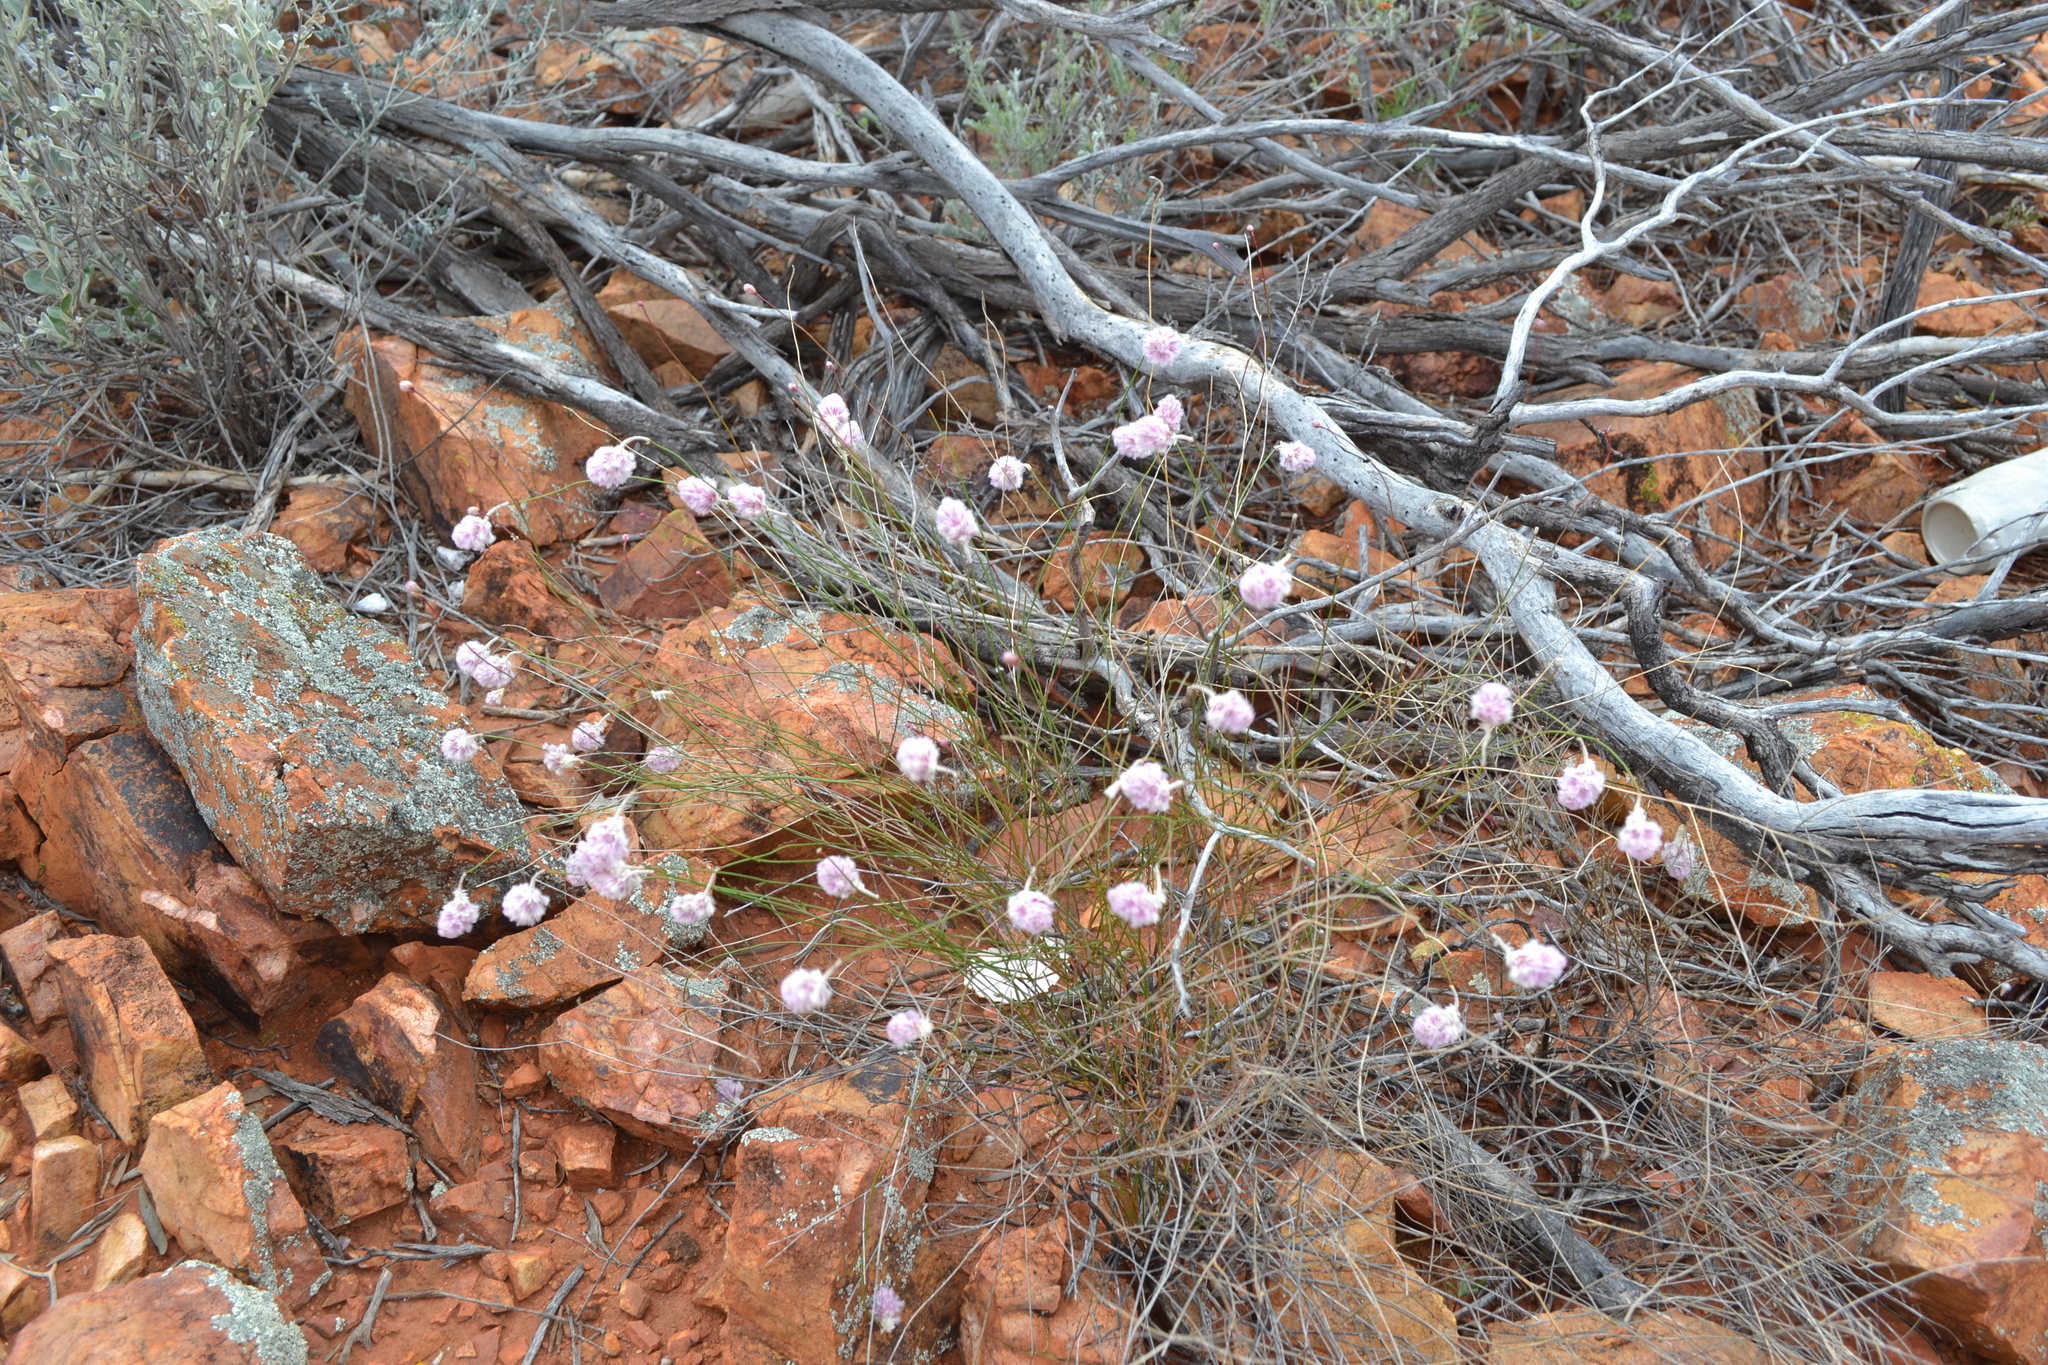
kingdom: Plantae
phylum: Tracheophyta
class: Magnoliopsida
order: Caryophyllales
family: Amaranthaceae
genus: Ptilotus
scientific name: Ptilotus schwartzii
